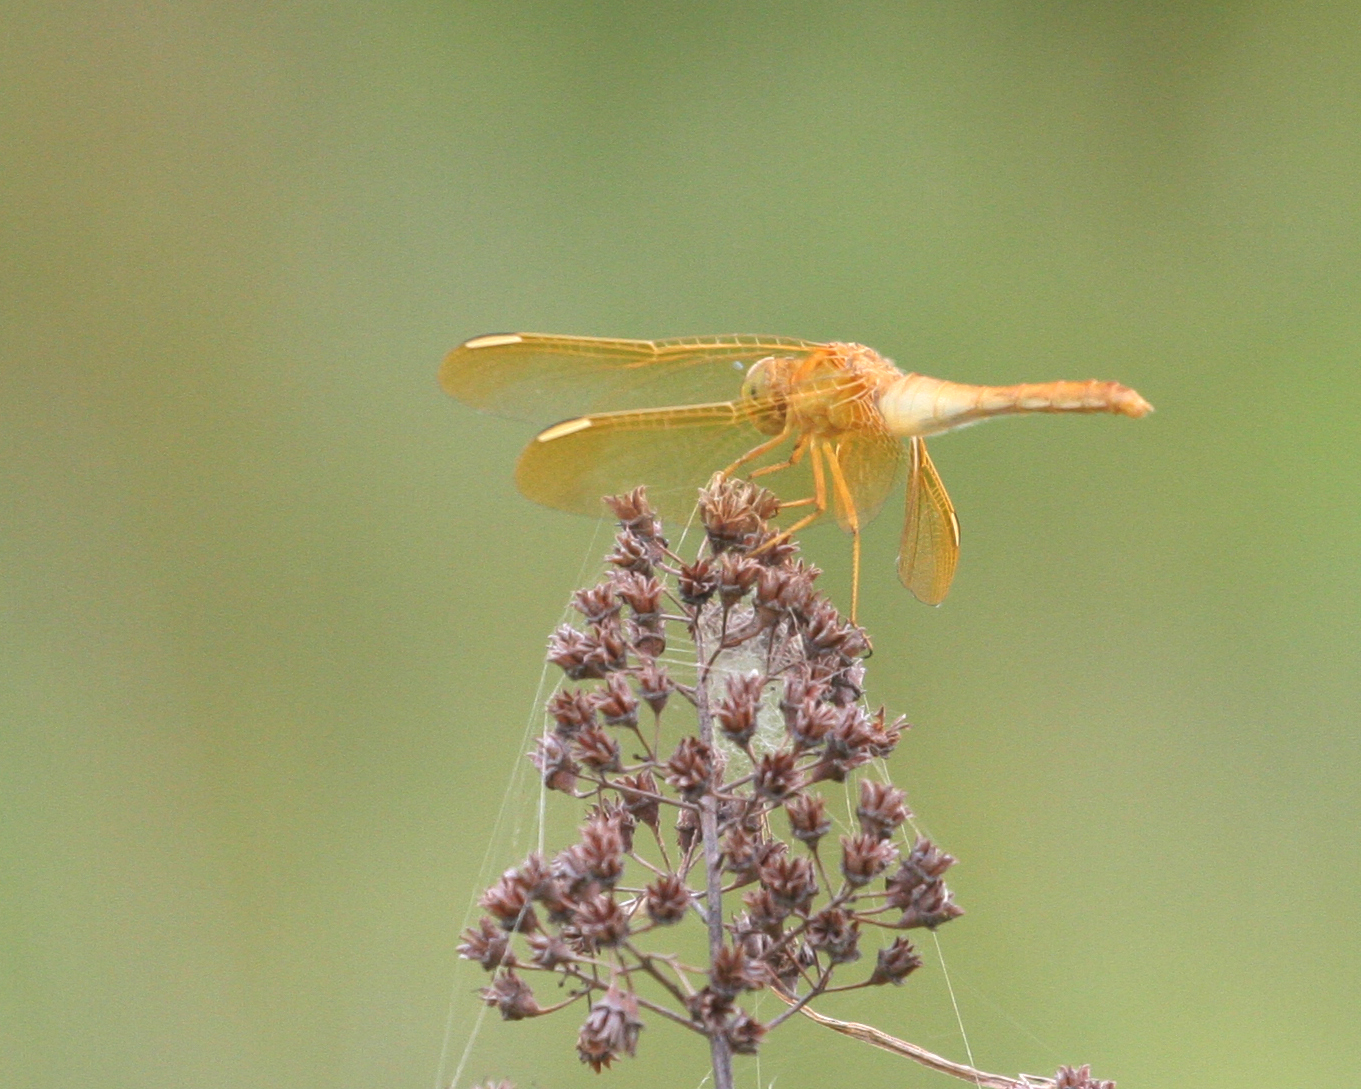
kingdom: Animalia
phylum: Arthropoda
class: Insecta
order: Odonata
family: Libellulidae
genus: Sympetrum
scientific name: Sympetrum uniforme
